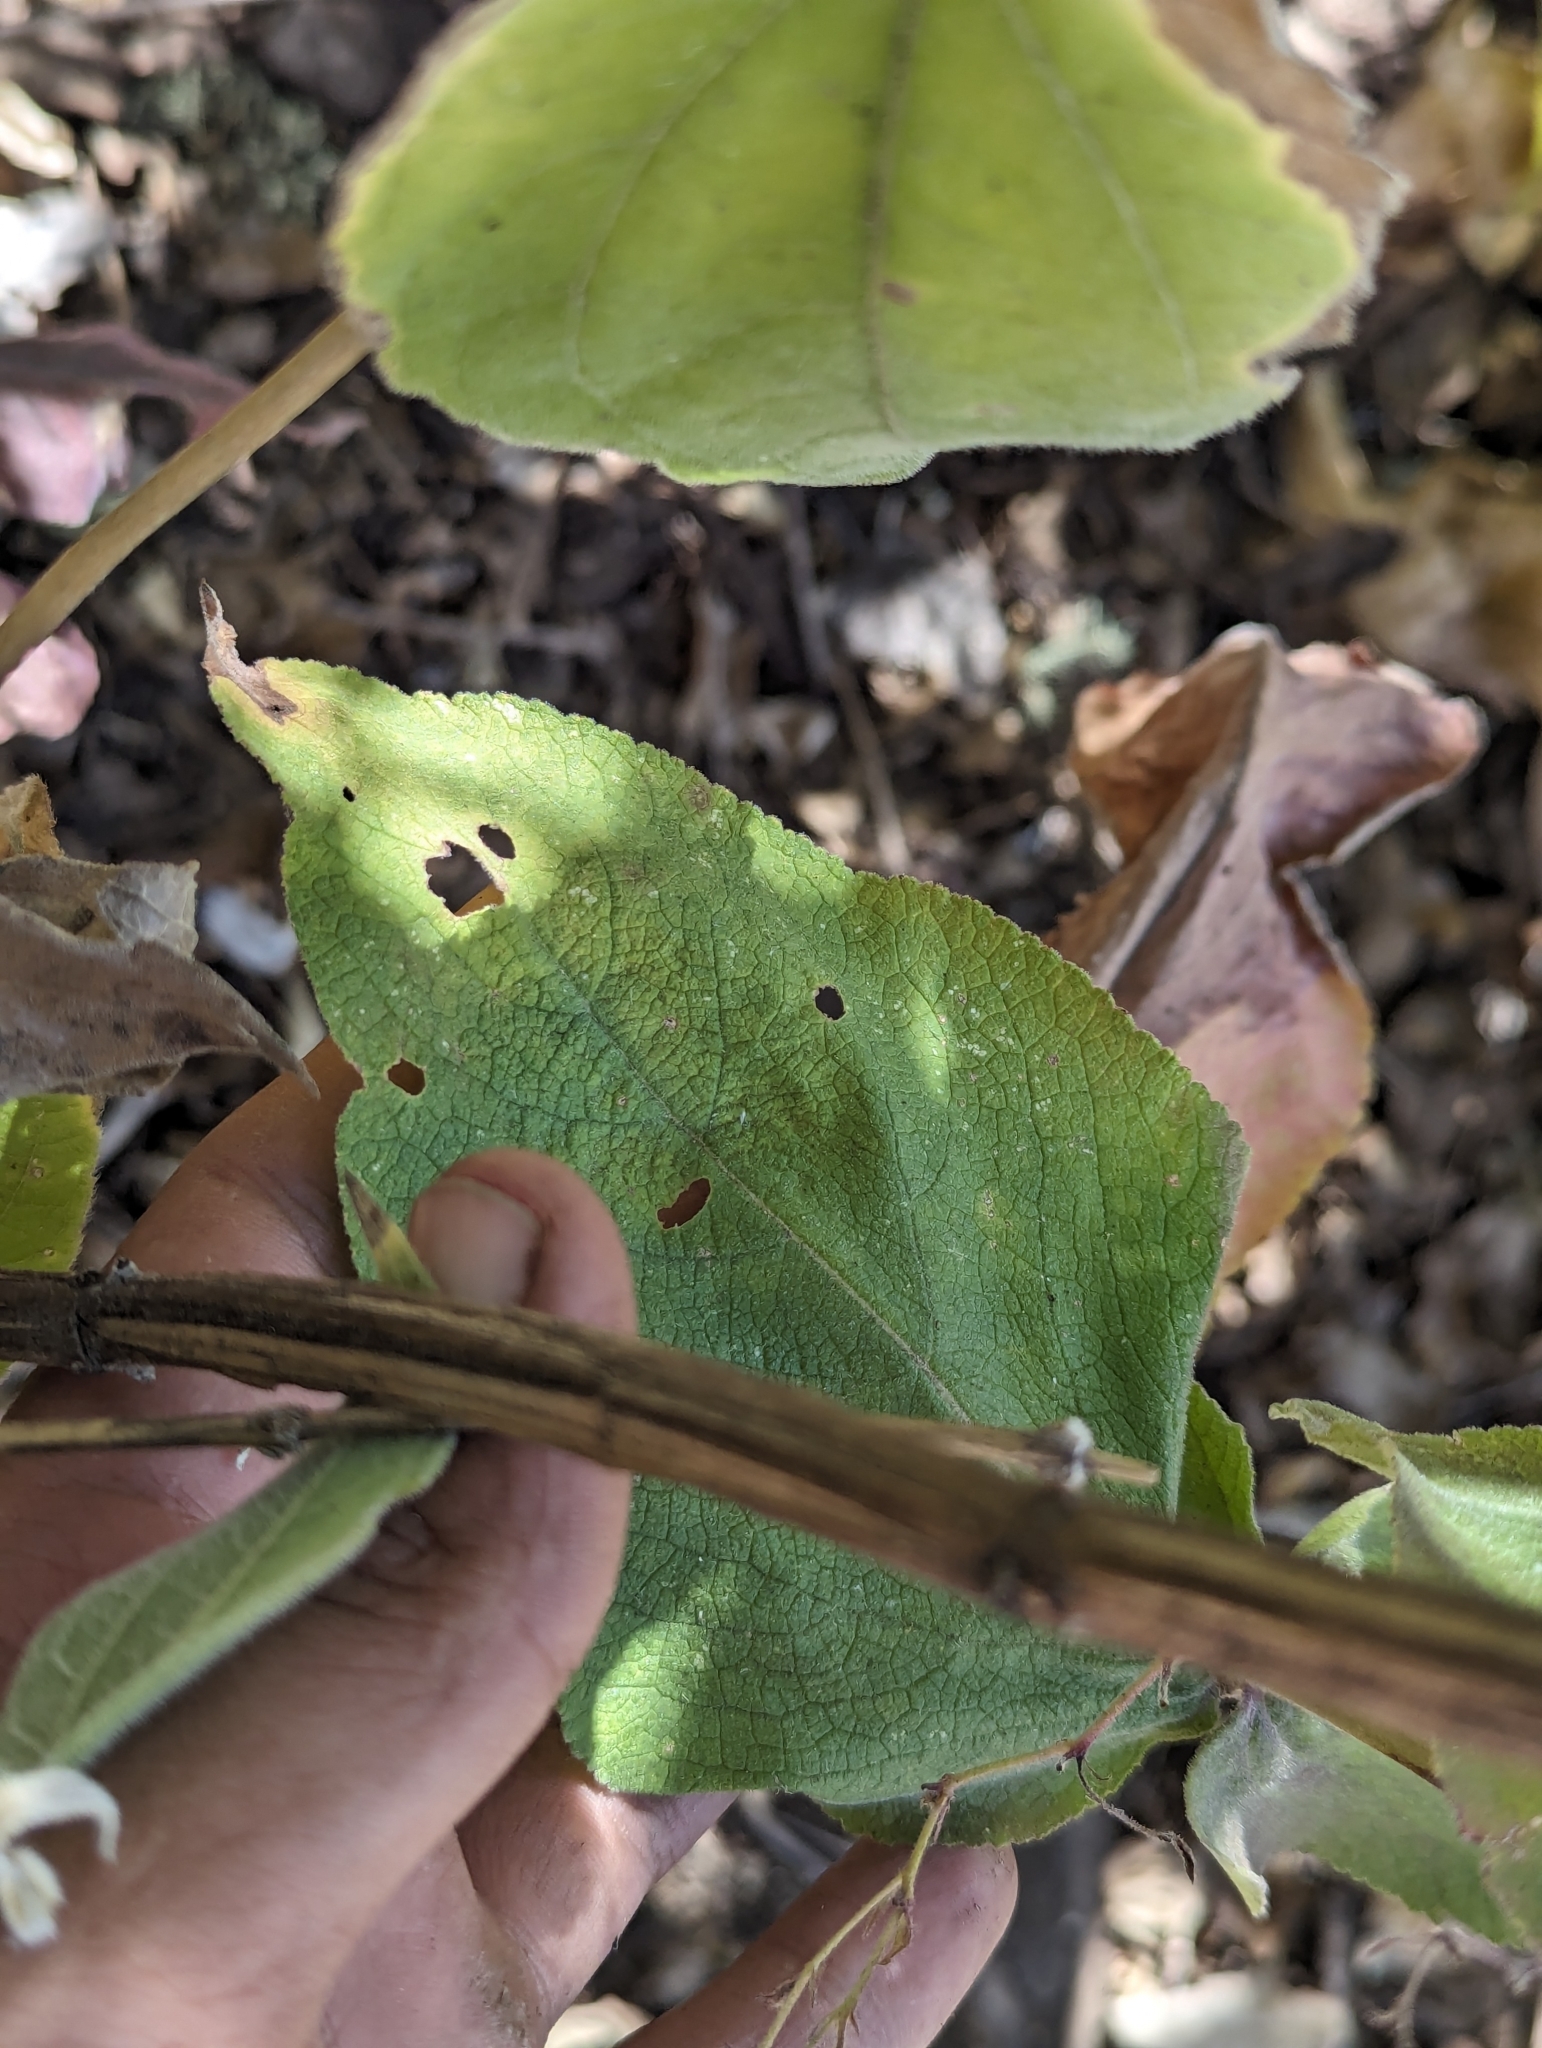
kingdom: Plantae
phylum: Tracheophyta
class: Magnoliopsida
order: Lamiales
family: Lamiaceae
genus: Lepechinia
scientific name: Lepechinia hastata
